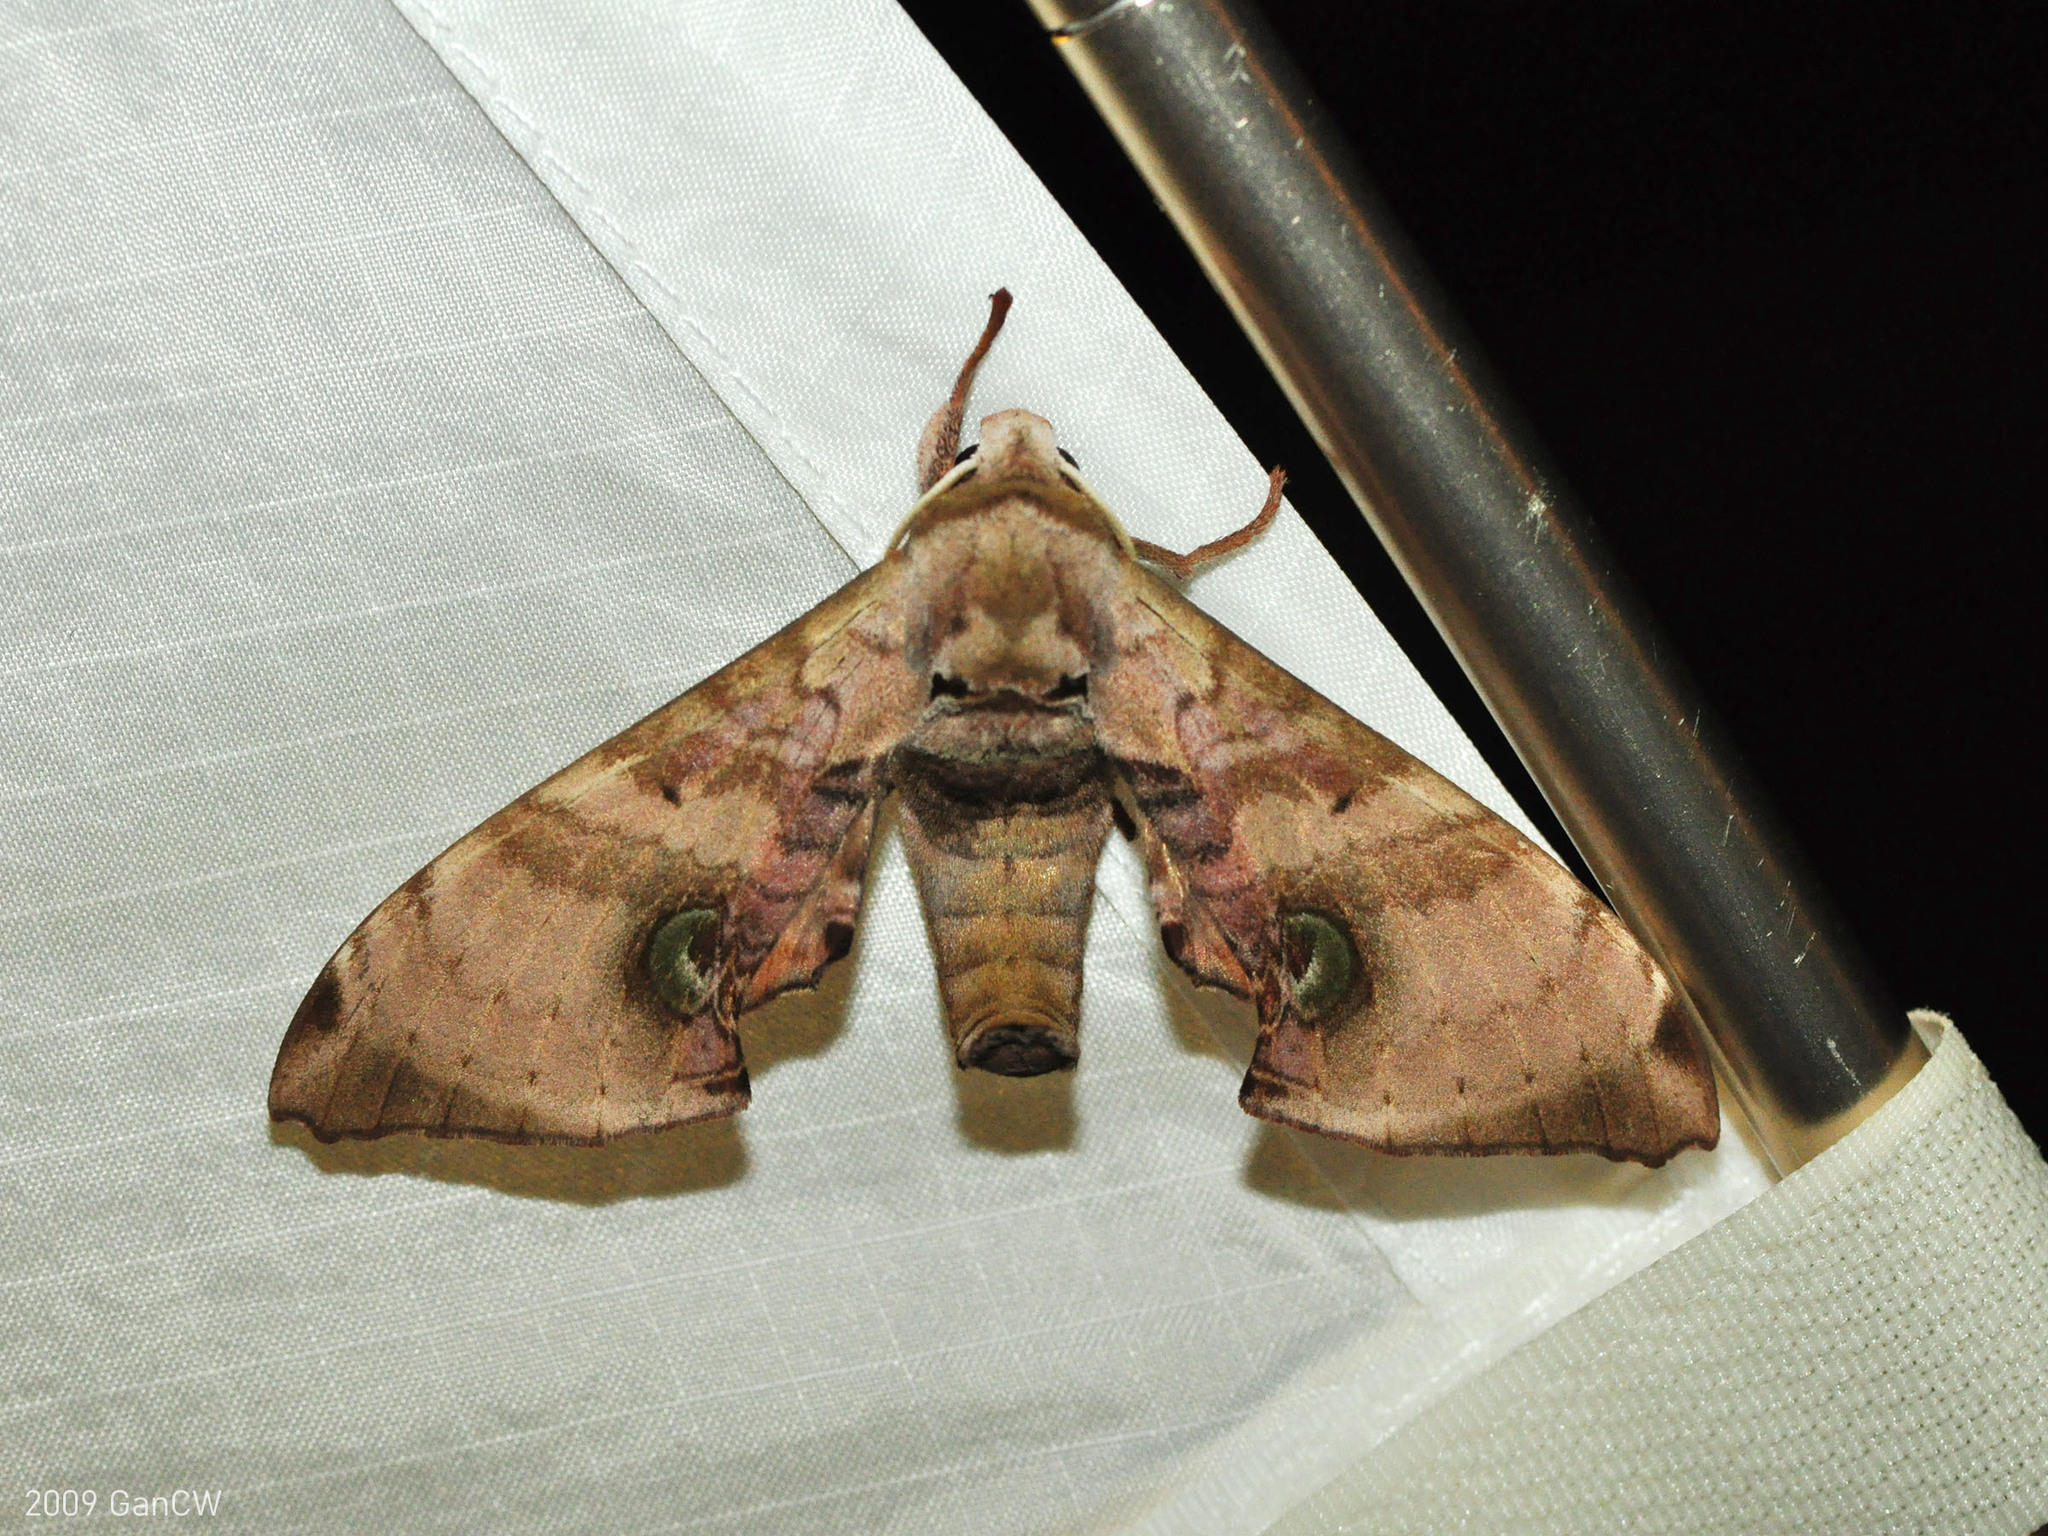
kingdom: Animalia
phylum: Arthropoda
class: Insecta
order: Lepidoptera
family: Sphingidae
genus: Daphnusa
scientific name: Daphnusa ocellaris
